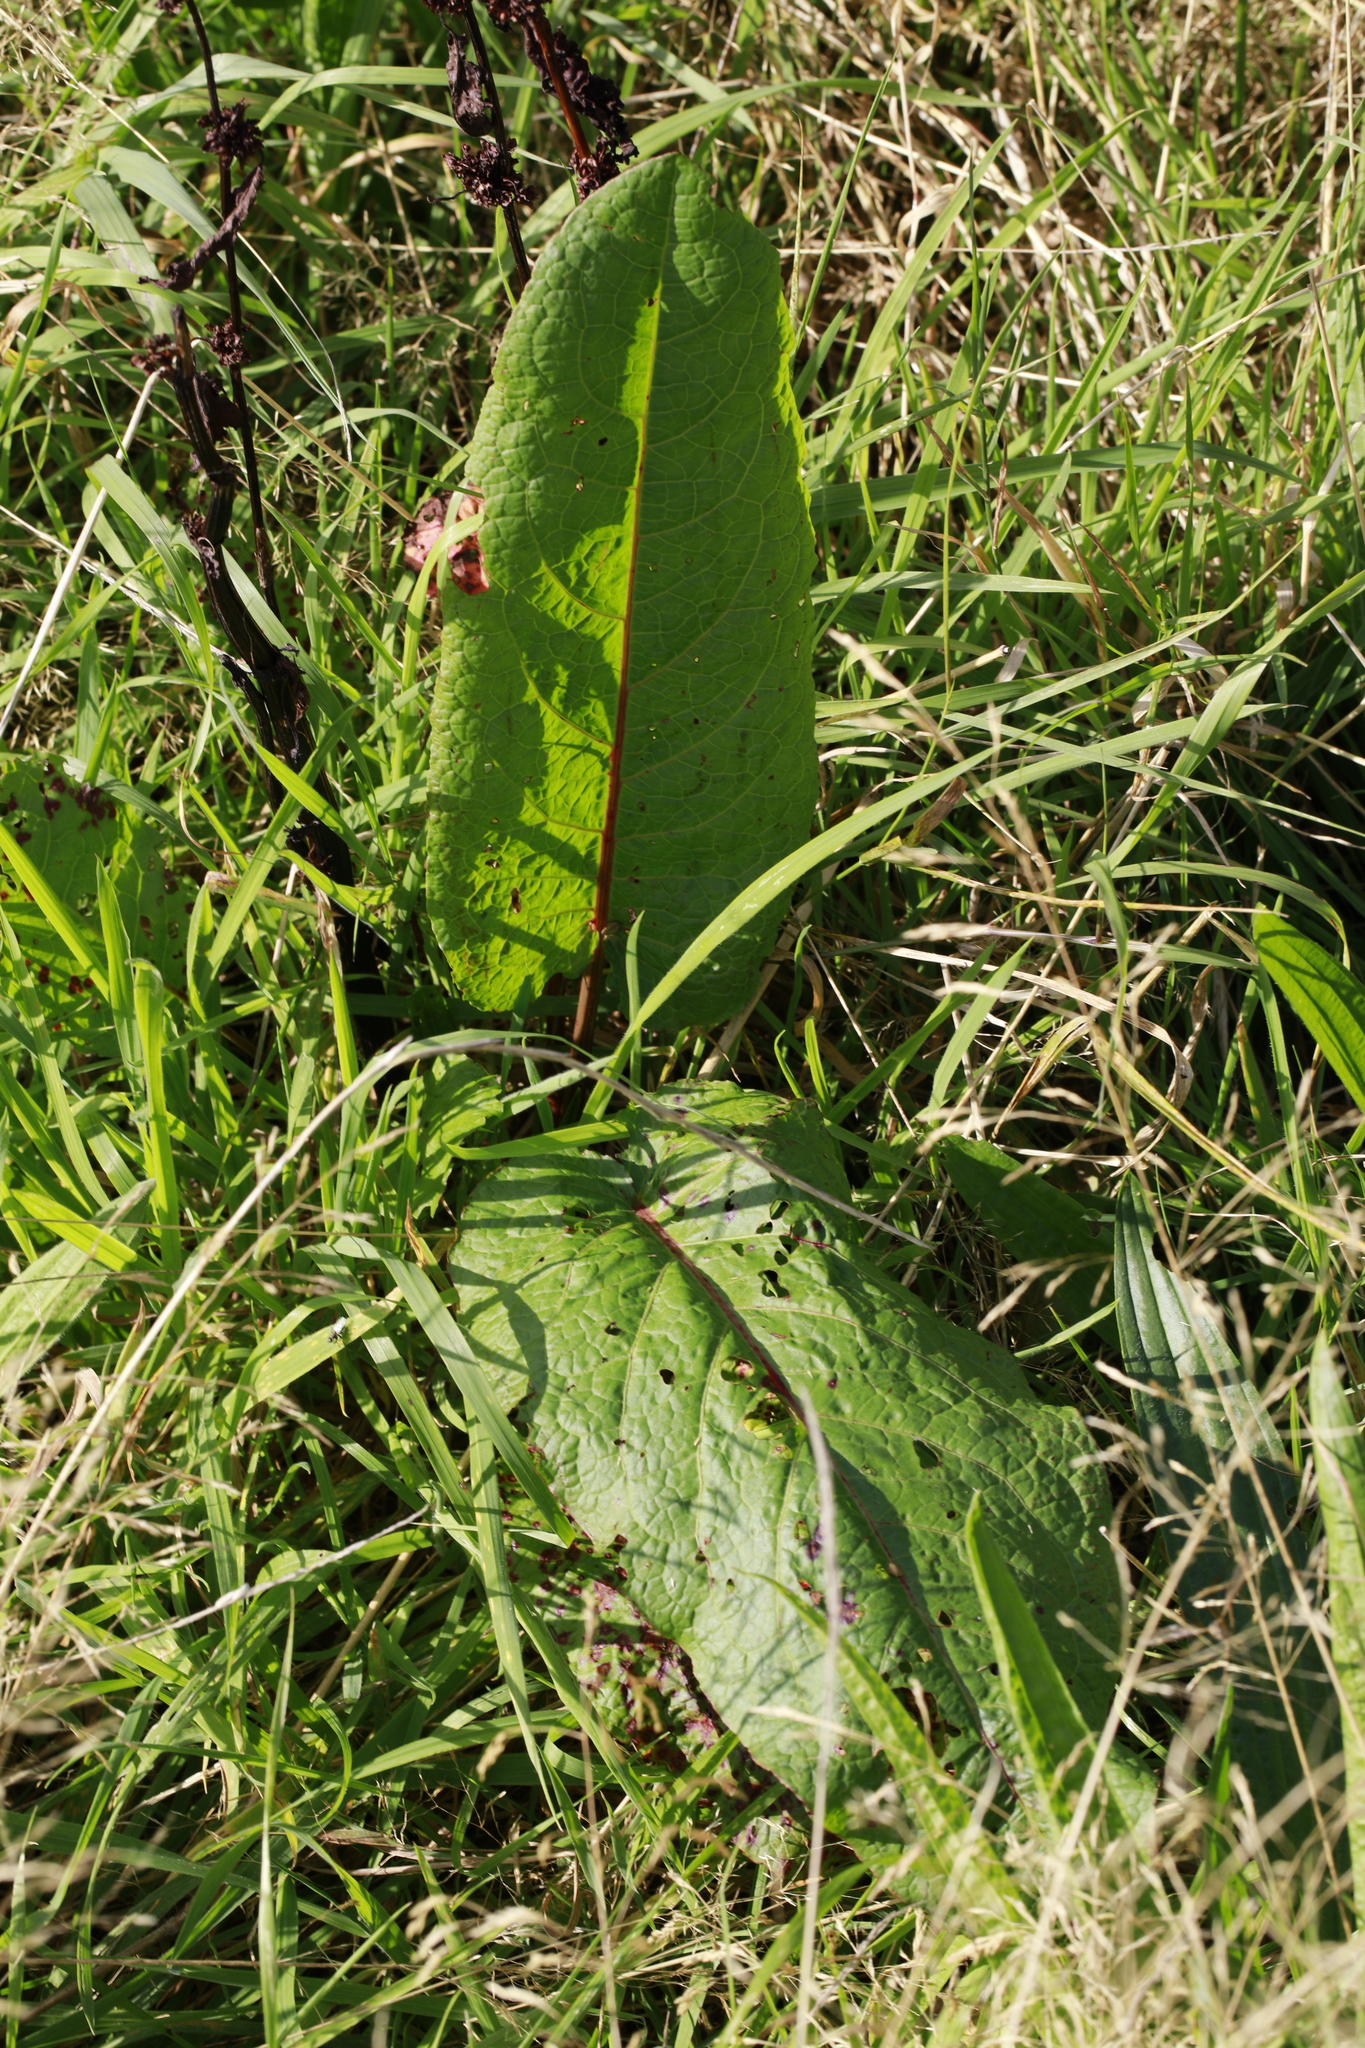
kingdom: Plantae
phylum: Tracheophyta
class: Magnoliopsida
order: Caryophyllales
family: Polygonaceae
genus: Rumex
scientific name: Rumex obtusifolius
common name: Bitter dock
